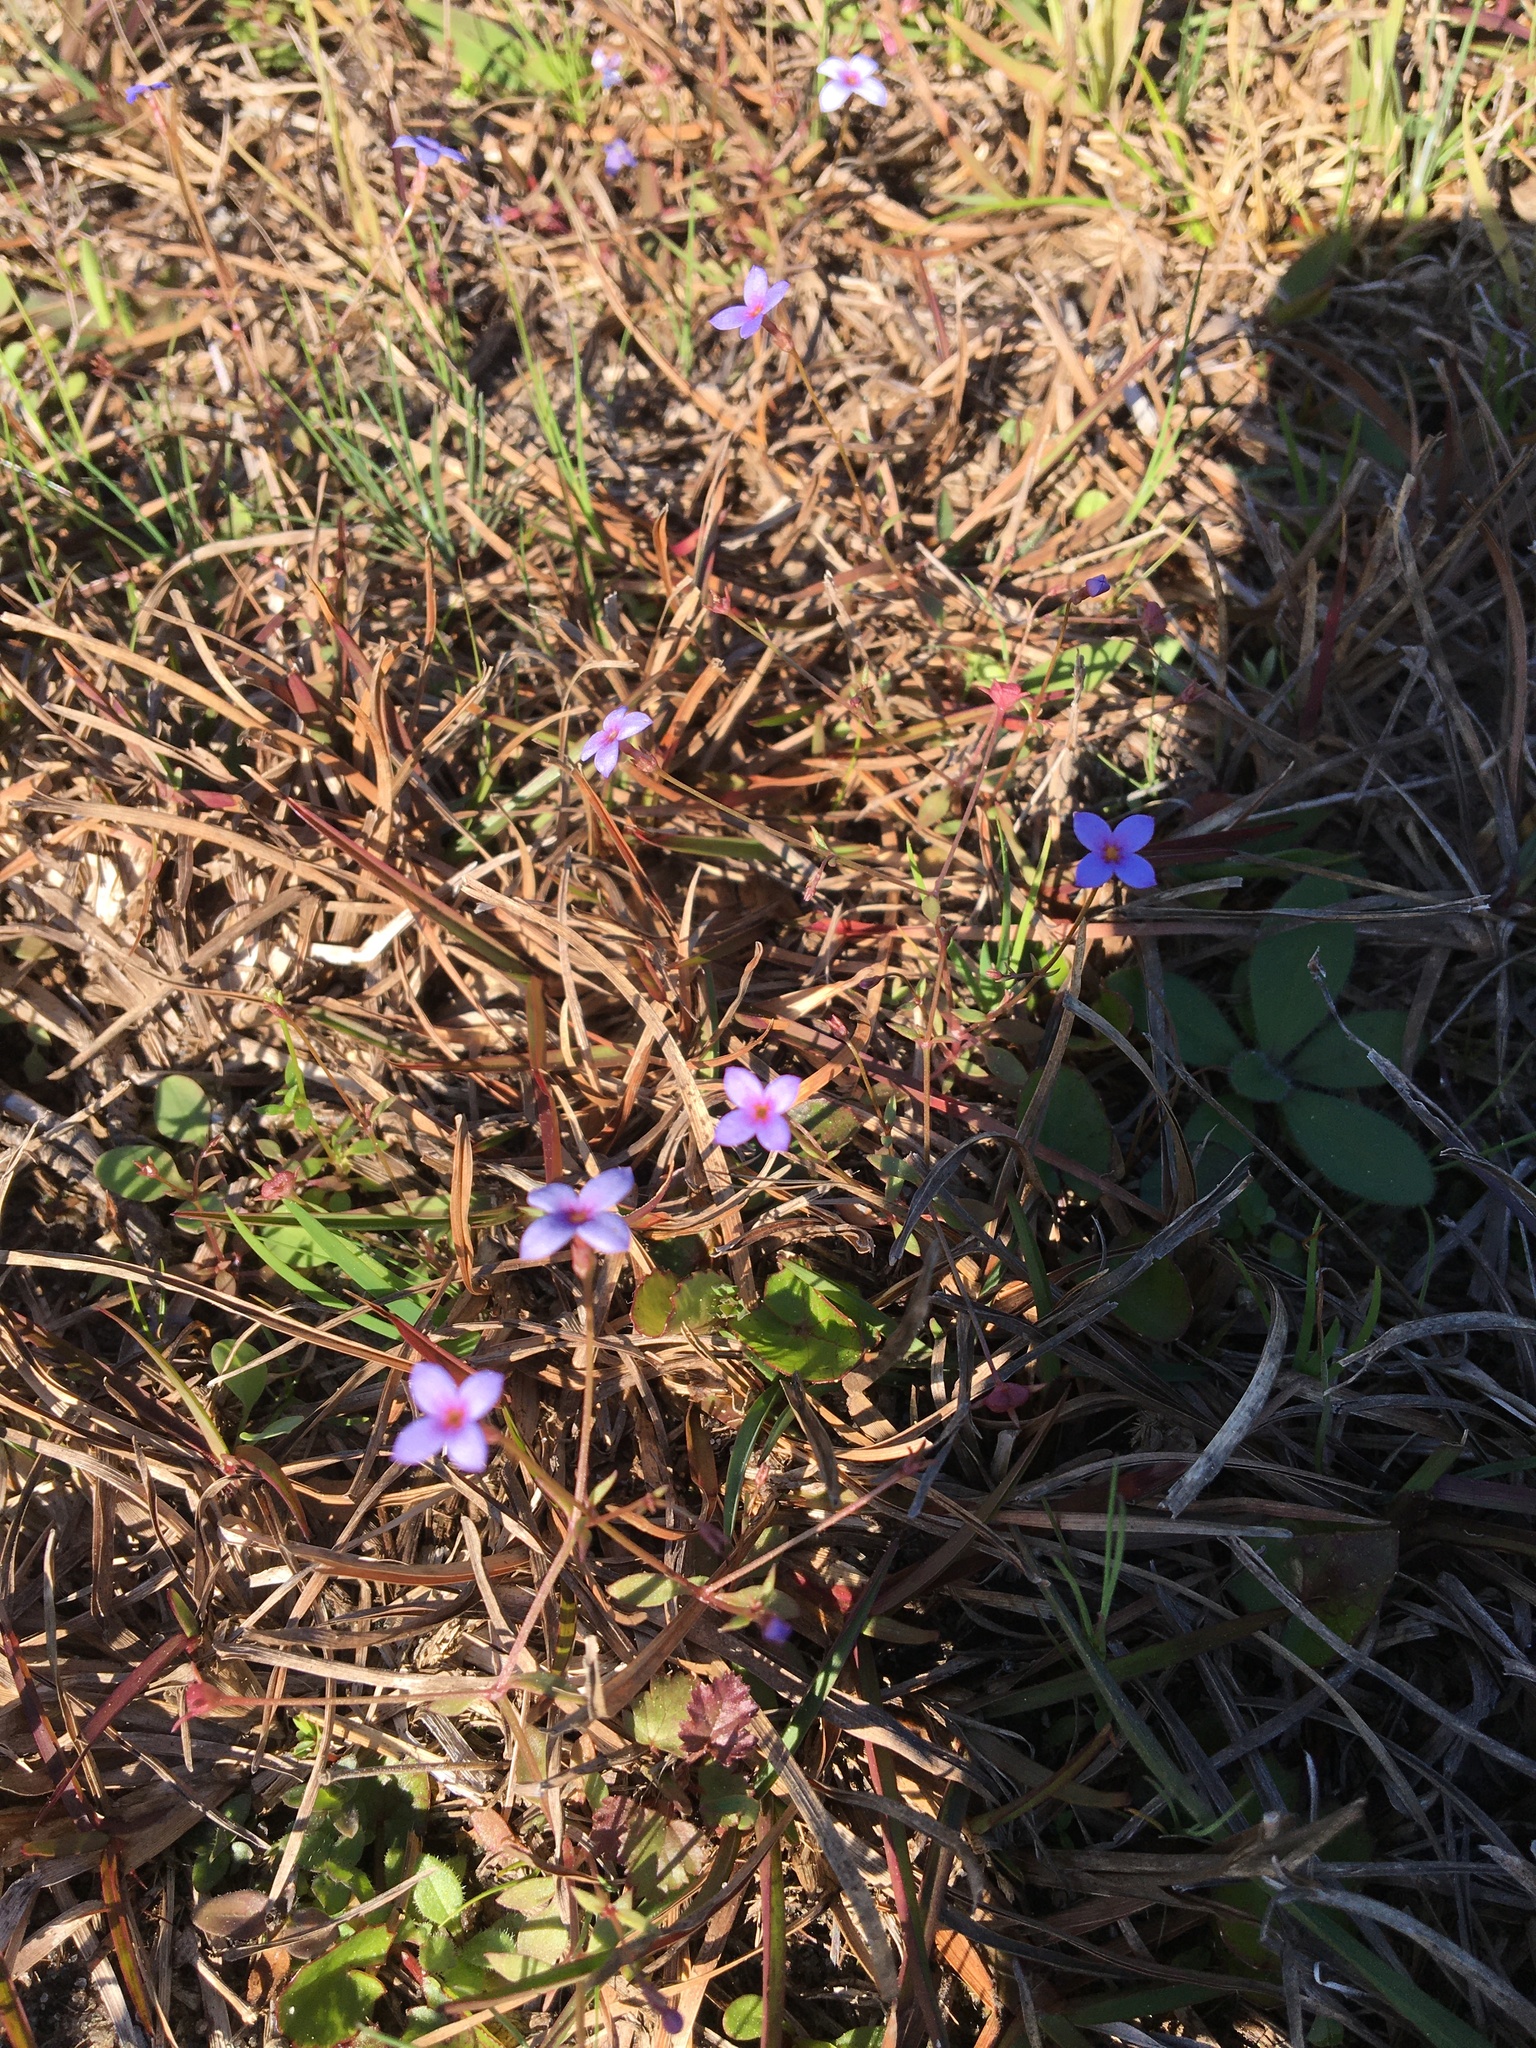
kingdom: Plantae
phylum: Tracheophyta
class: Magnoliopsida
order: Gentianales
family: Rubiaceae
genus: Houstonia
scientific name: Houstonia pusilla
